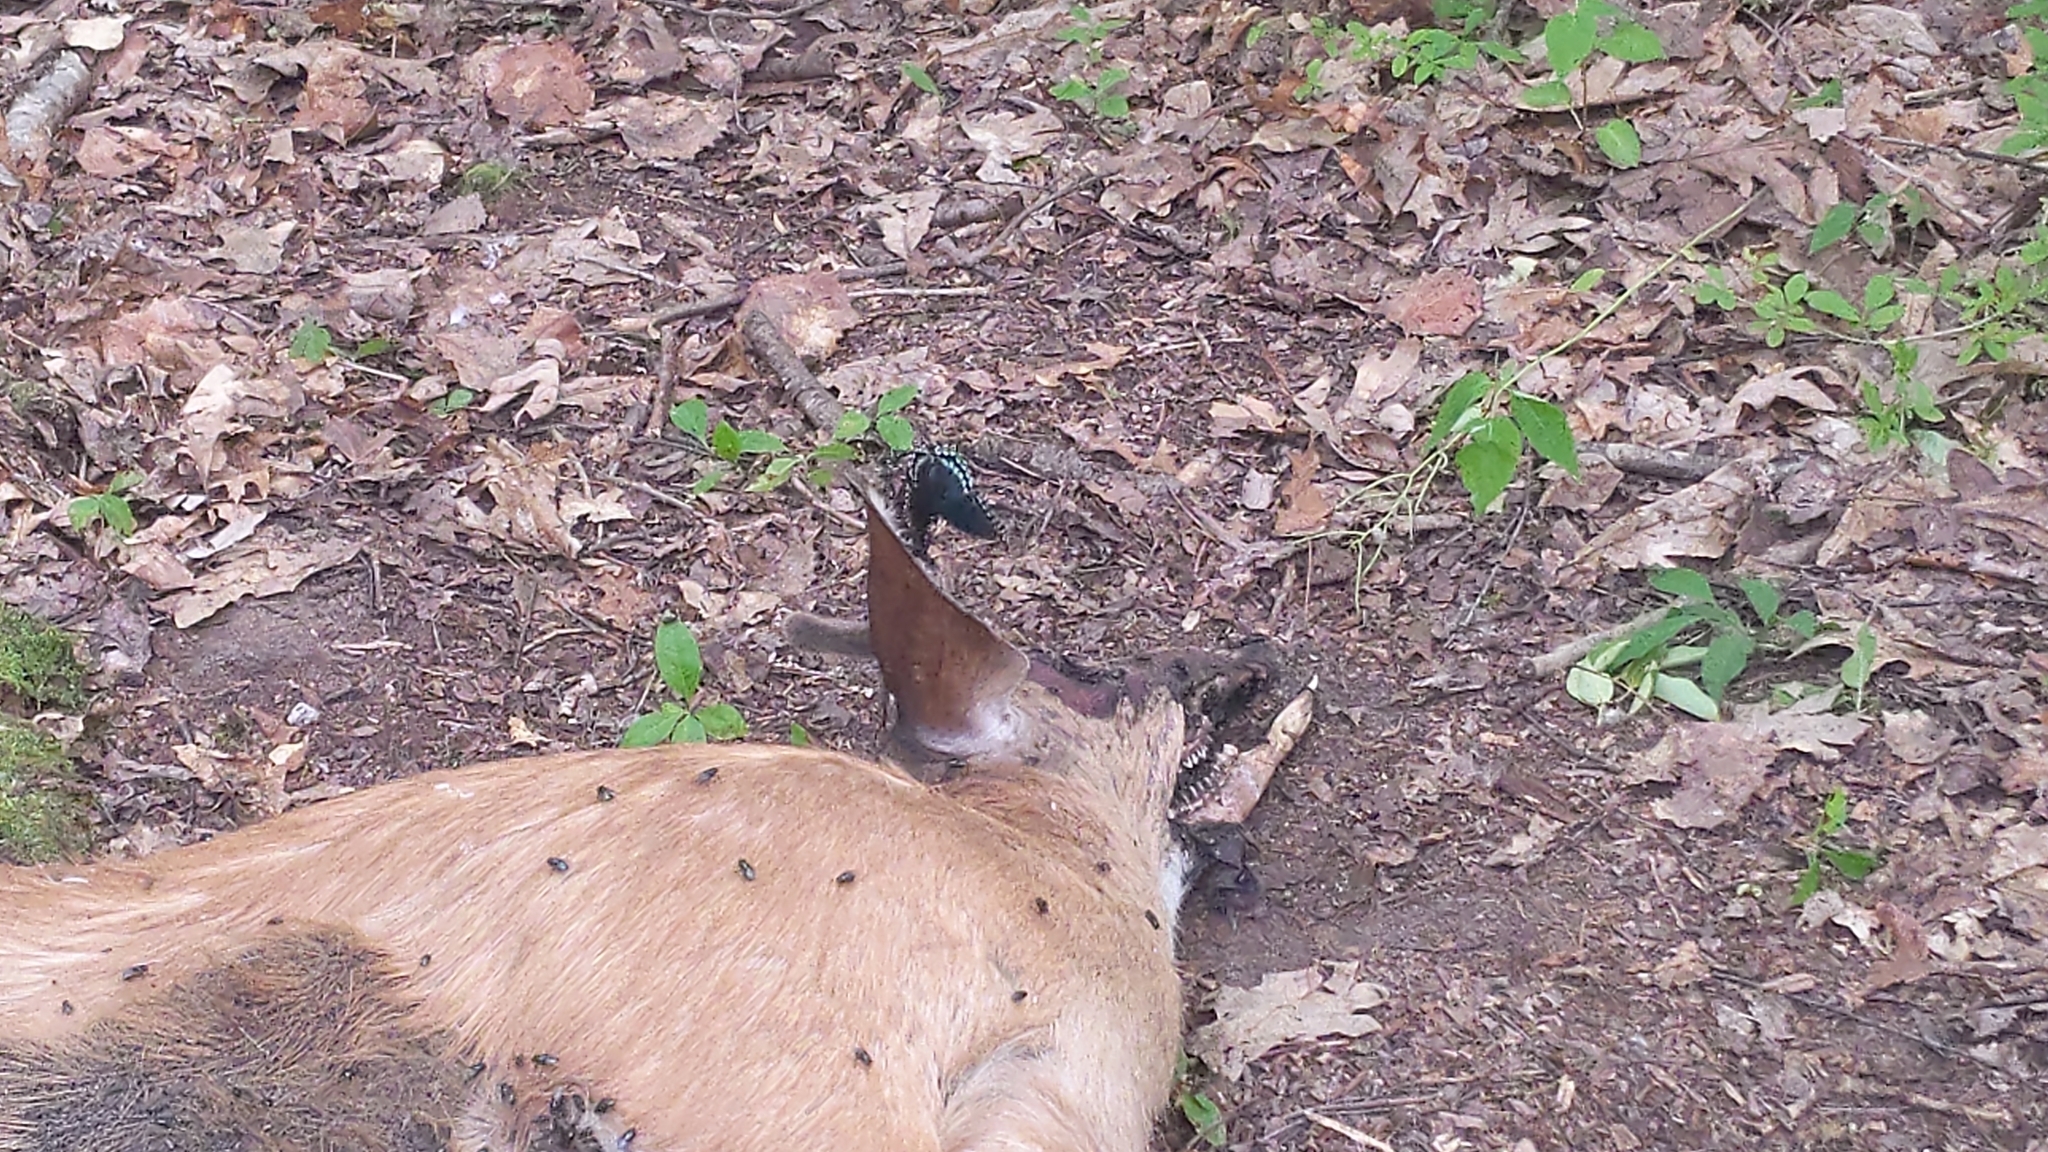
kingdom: Animalia
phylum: Chordata
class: Mammalia
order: Artiodactyla
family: Cervidae
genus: Odocoileus
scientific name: Odocoileus virginianus
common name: White-tailed deer
